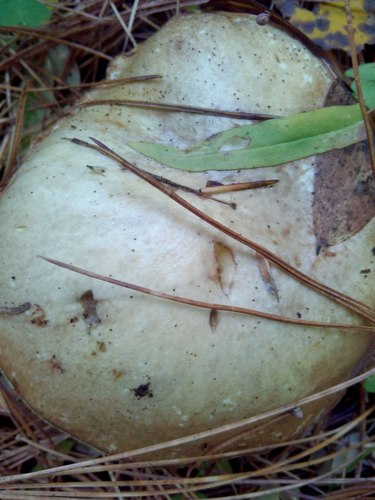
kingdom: Fungi
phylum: Basidiomycota
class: Agaricomycetes
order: Boletales
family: Suillaceae
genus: Suillus
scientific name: Suillus placidus
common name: Slippery white bolete
